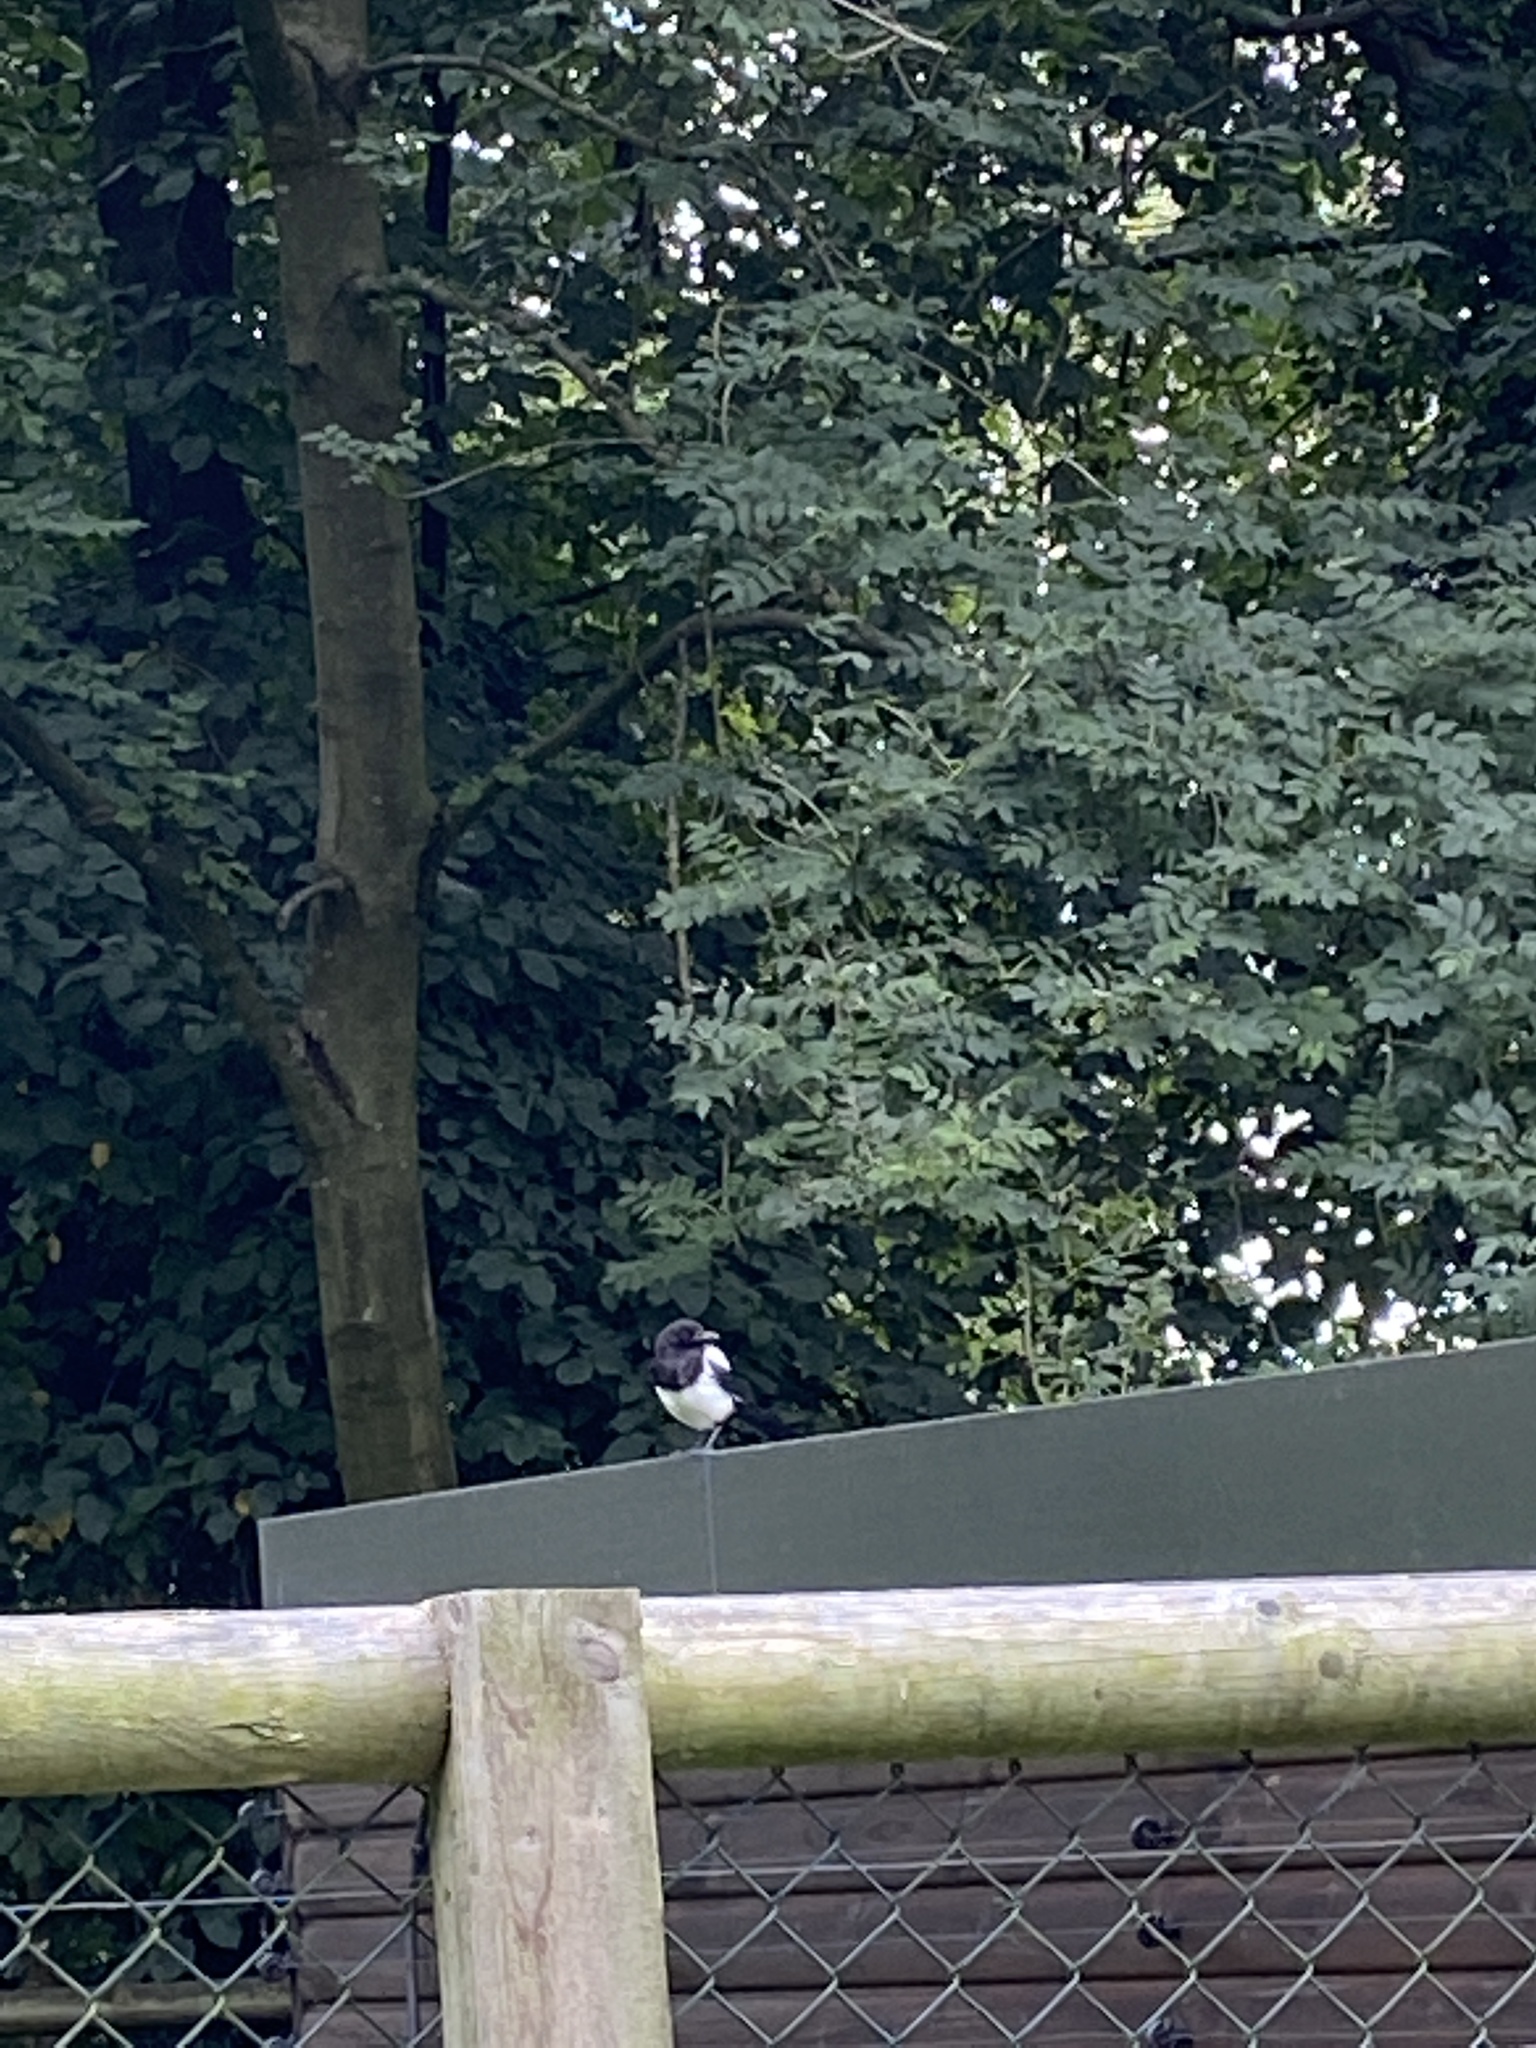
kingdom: Animalia
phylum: Chordata
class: Aves
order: Passeriformes
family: Corvidae
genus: Pica
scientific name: Pica pica
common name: Eurasian magpie
